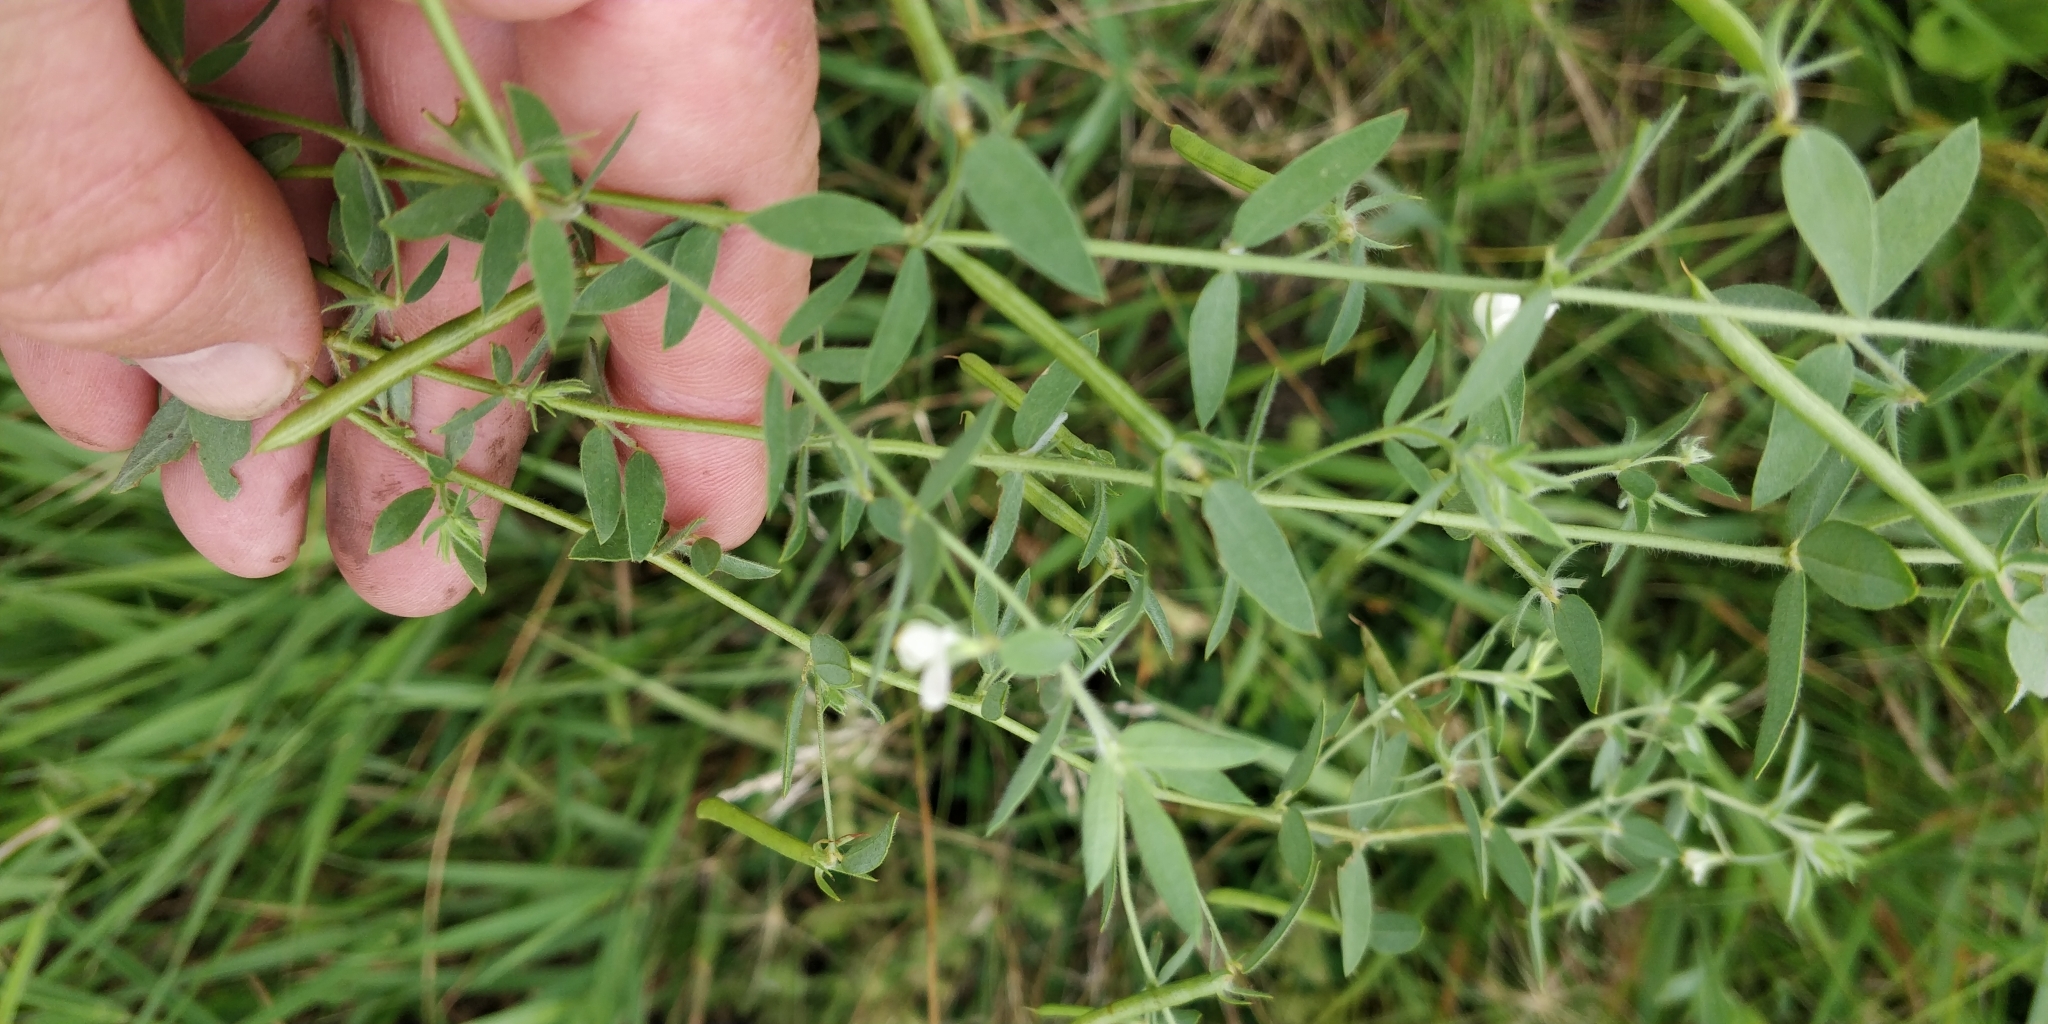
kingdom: Plantae
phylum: Tracheophyta
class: Magnoliopsida
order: Fabales
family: Fabaceae
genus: Acmispon
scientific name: Acmispon americanus
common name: American bird's-foot trefoil
